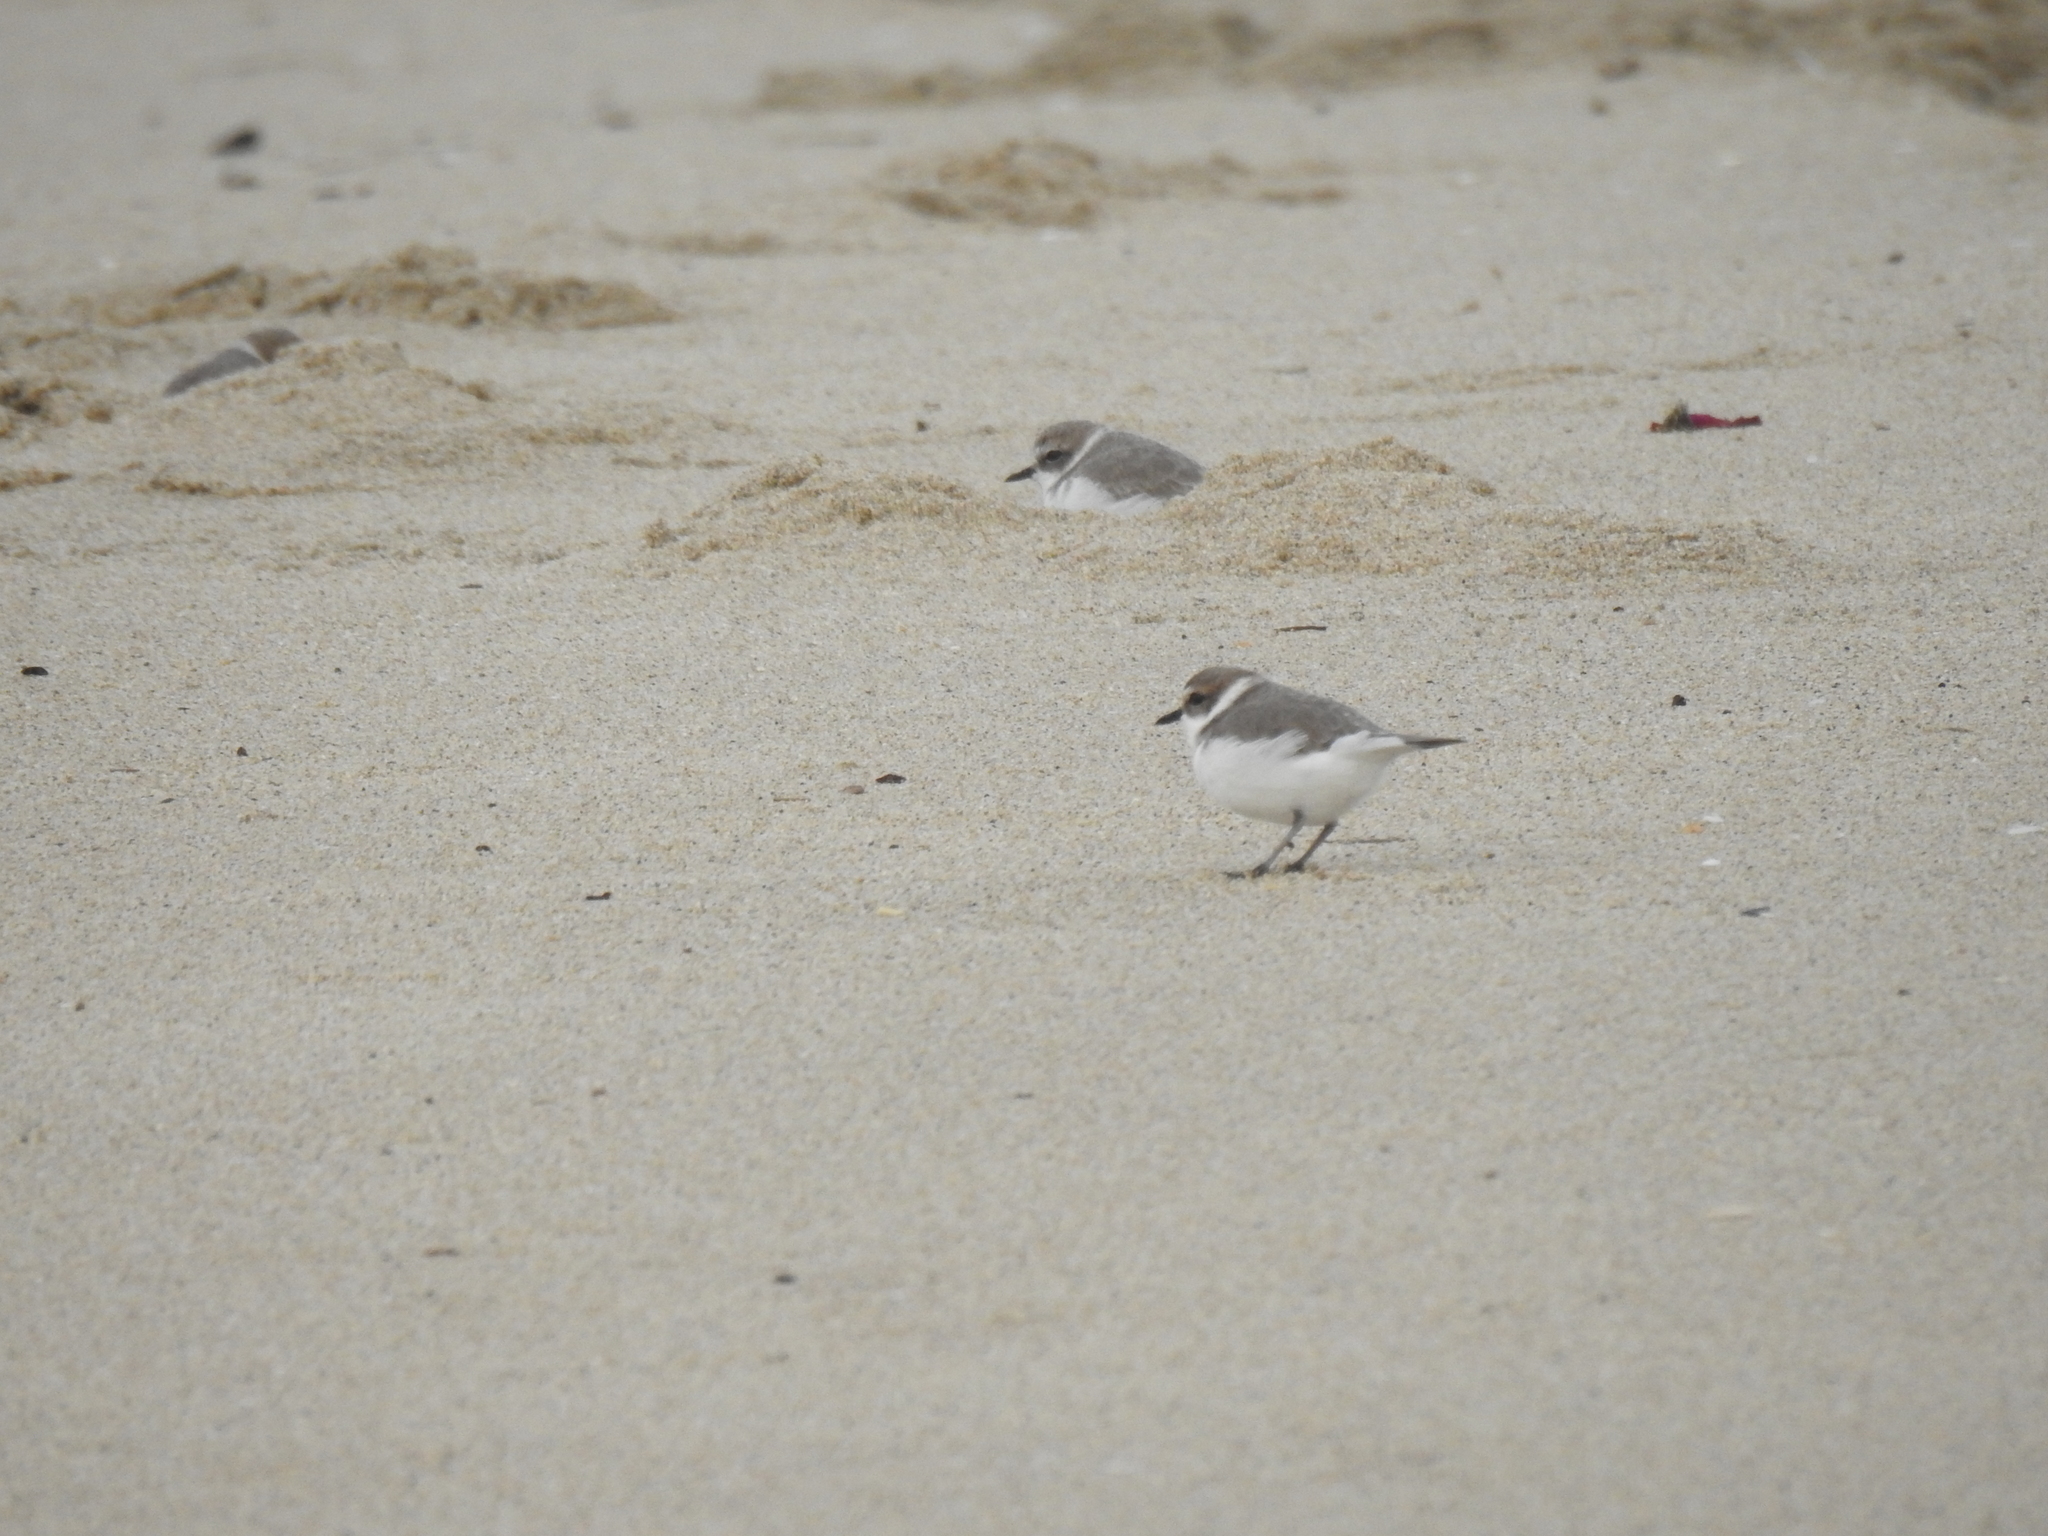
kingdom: Animalia
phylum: Chordata
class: Aves
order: Charadriiformes
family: Charadriidae
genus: Anarhynchus
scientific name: Anarhynchus
